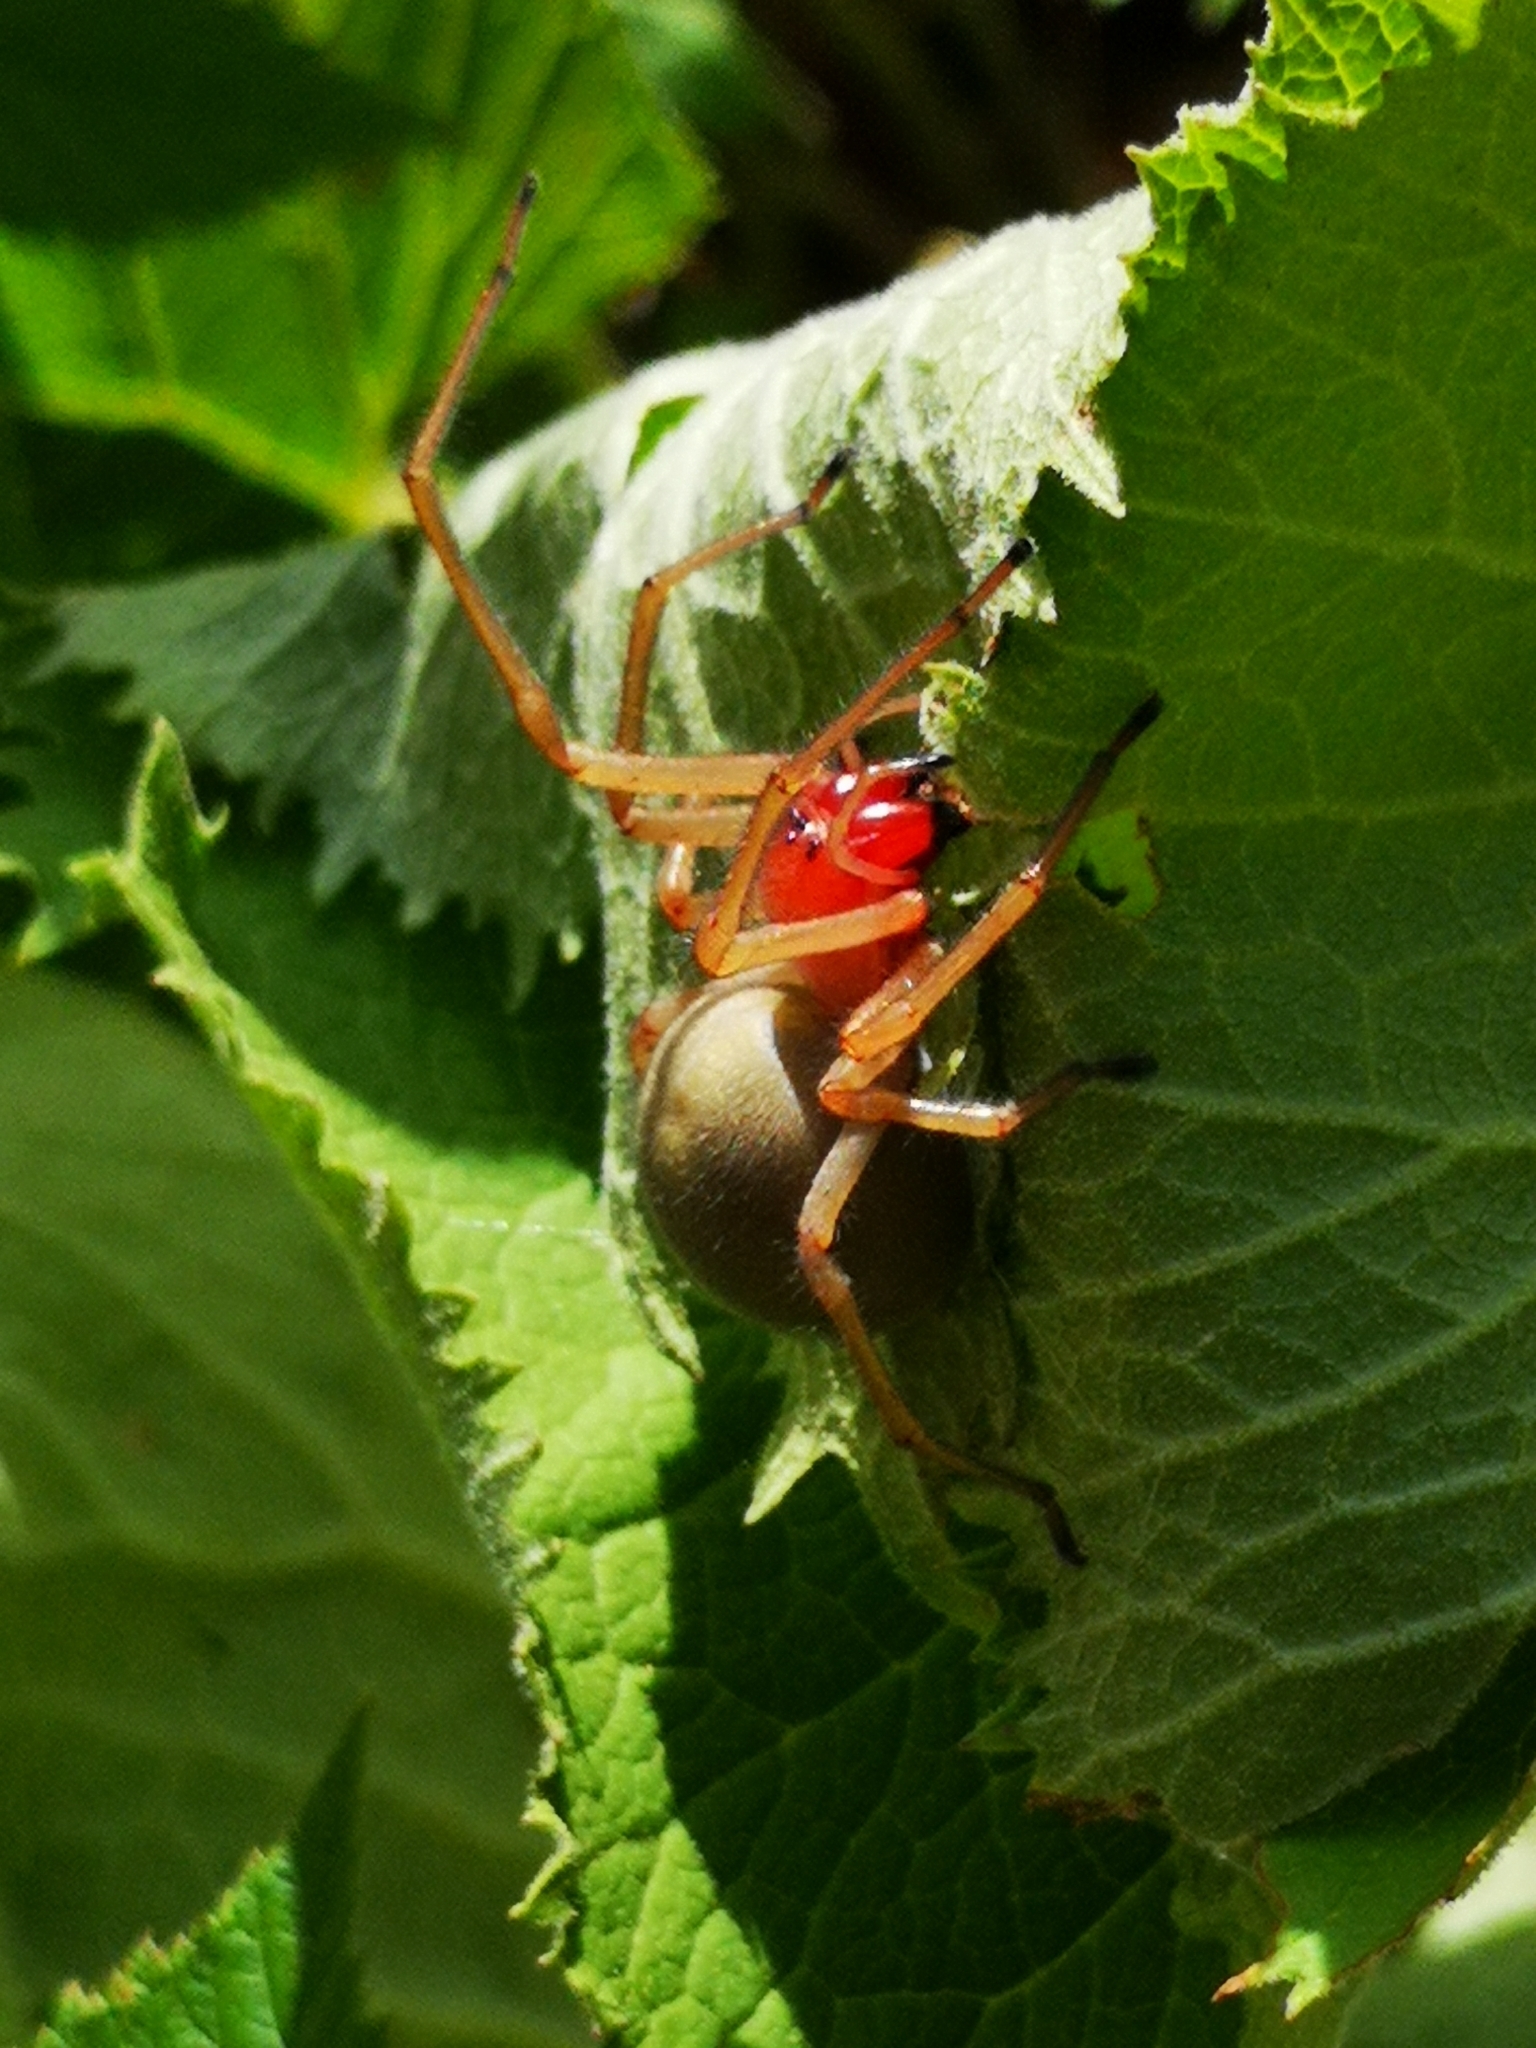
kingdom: Animalia
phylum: Arthropoda
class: Arachnida
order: Araneae
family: Cheiracanthiidae
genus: Cheiracanthium
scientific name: Cheiracanthium punctorium
